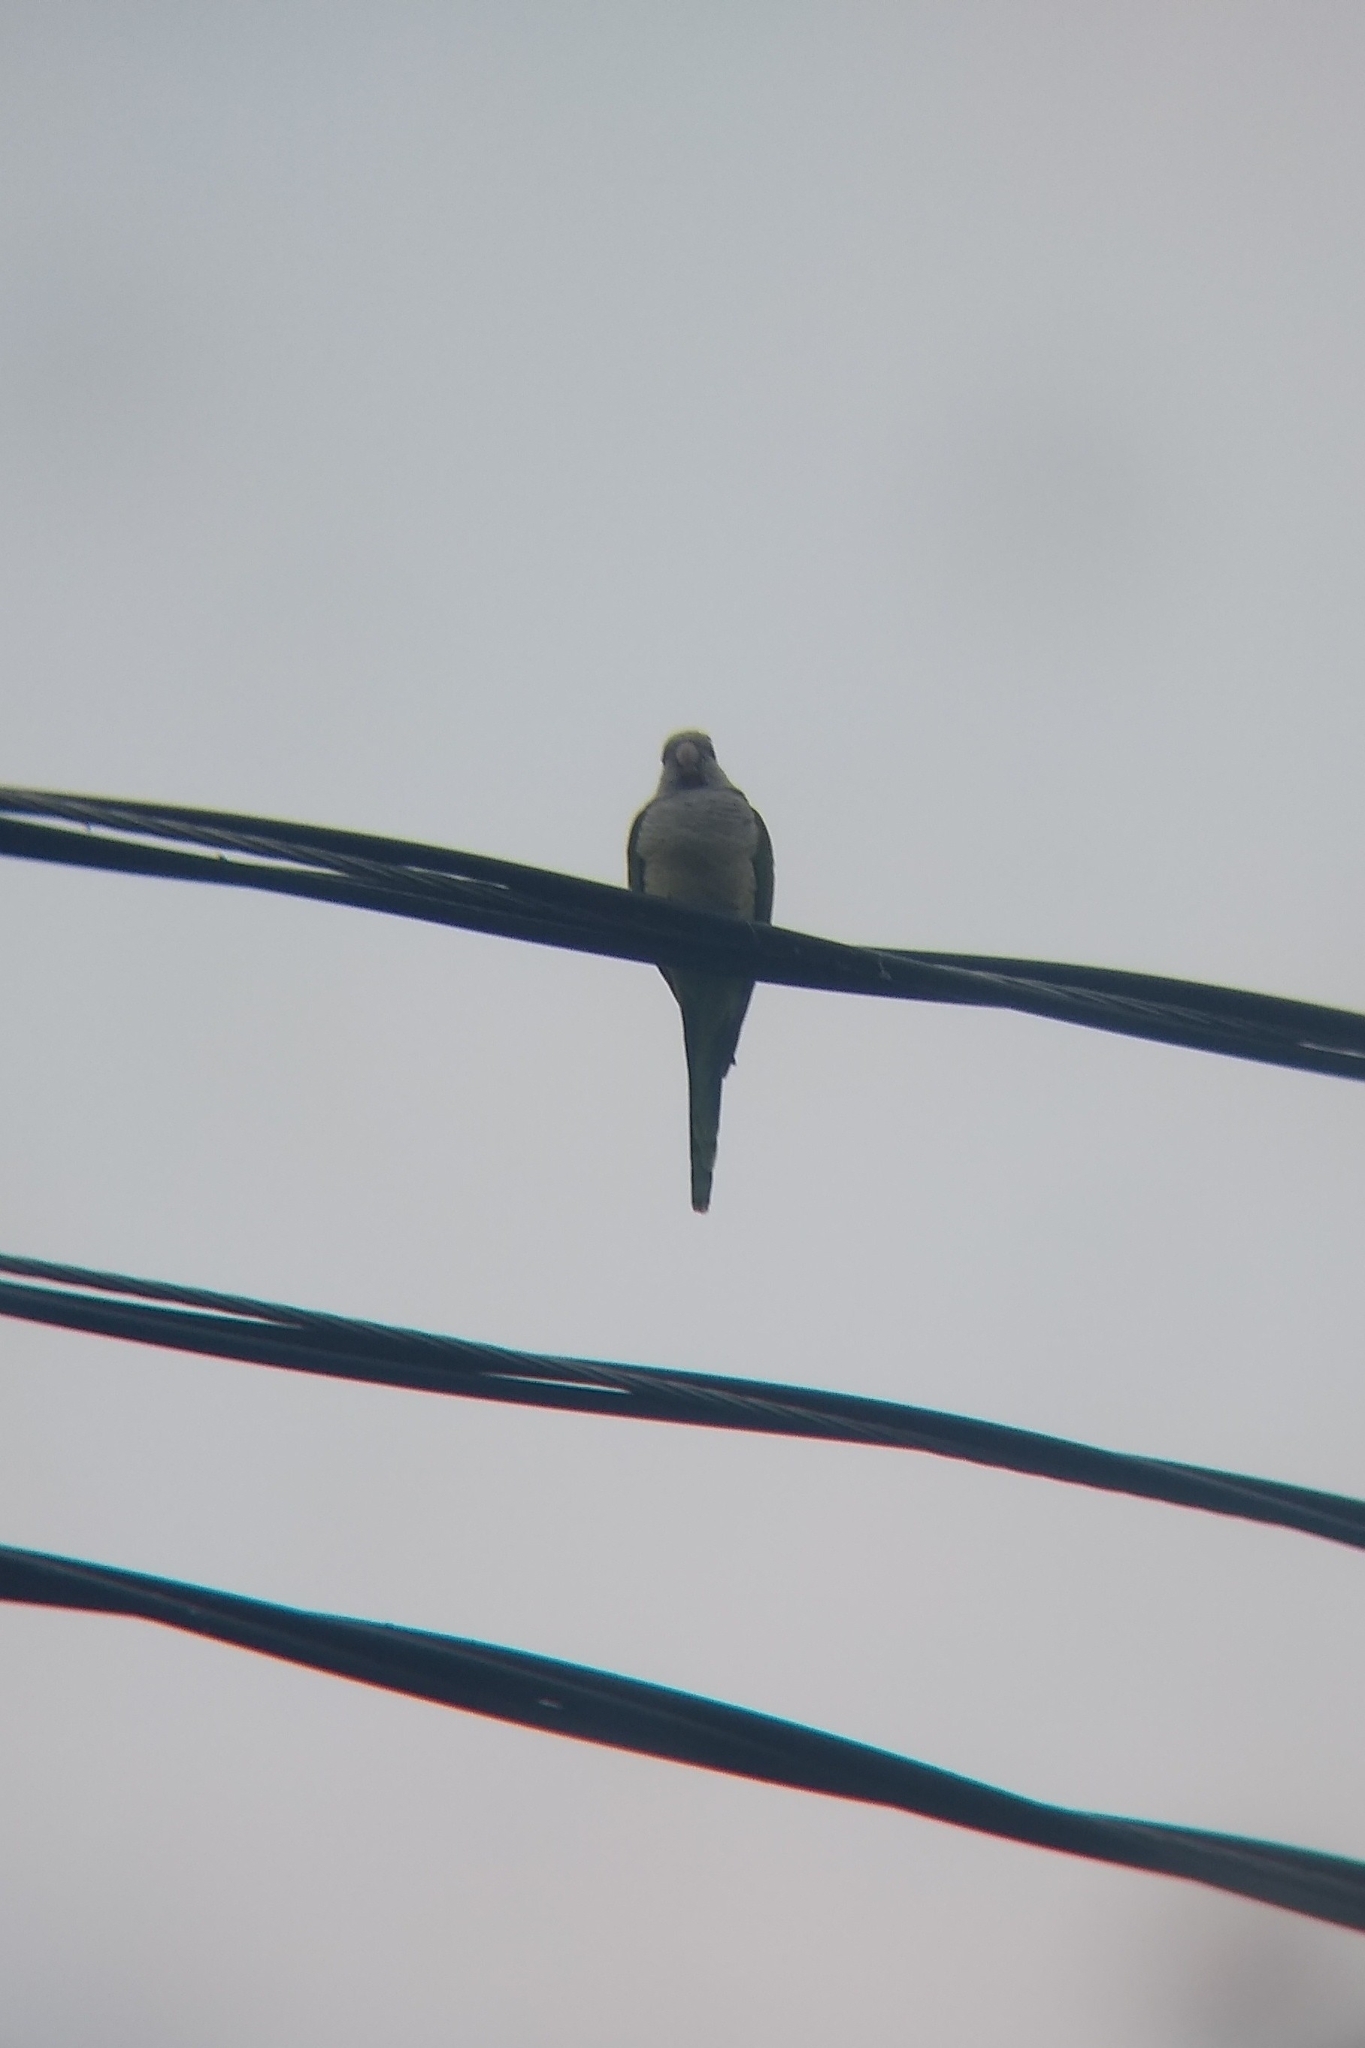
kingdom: Animalia
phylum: Chordata
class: Aves
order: Psittaciformes
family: Psittacidae
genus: Myiopsitta
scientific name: Myiopsitta monachus
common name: Monk parakeet
